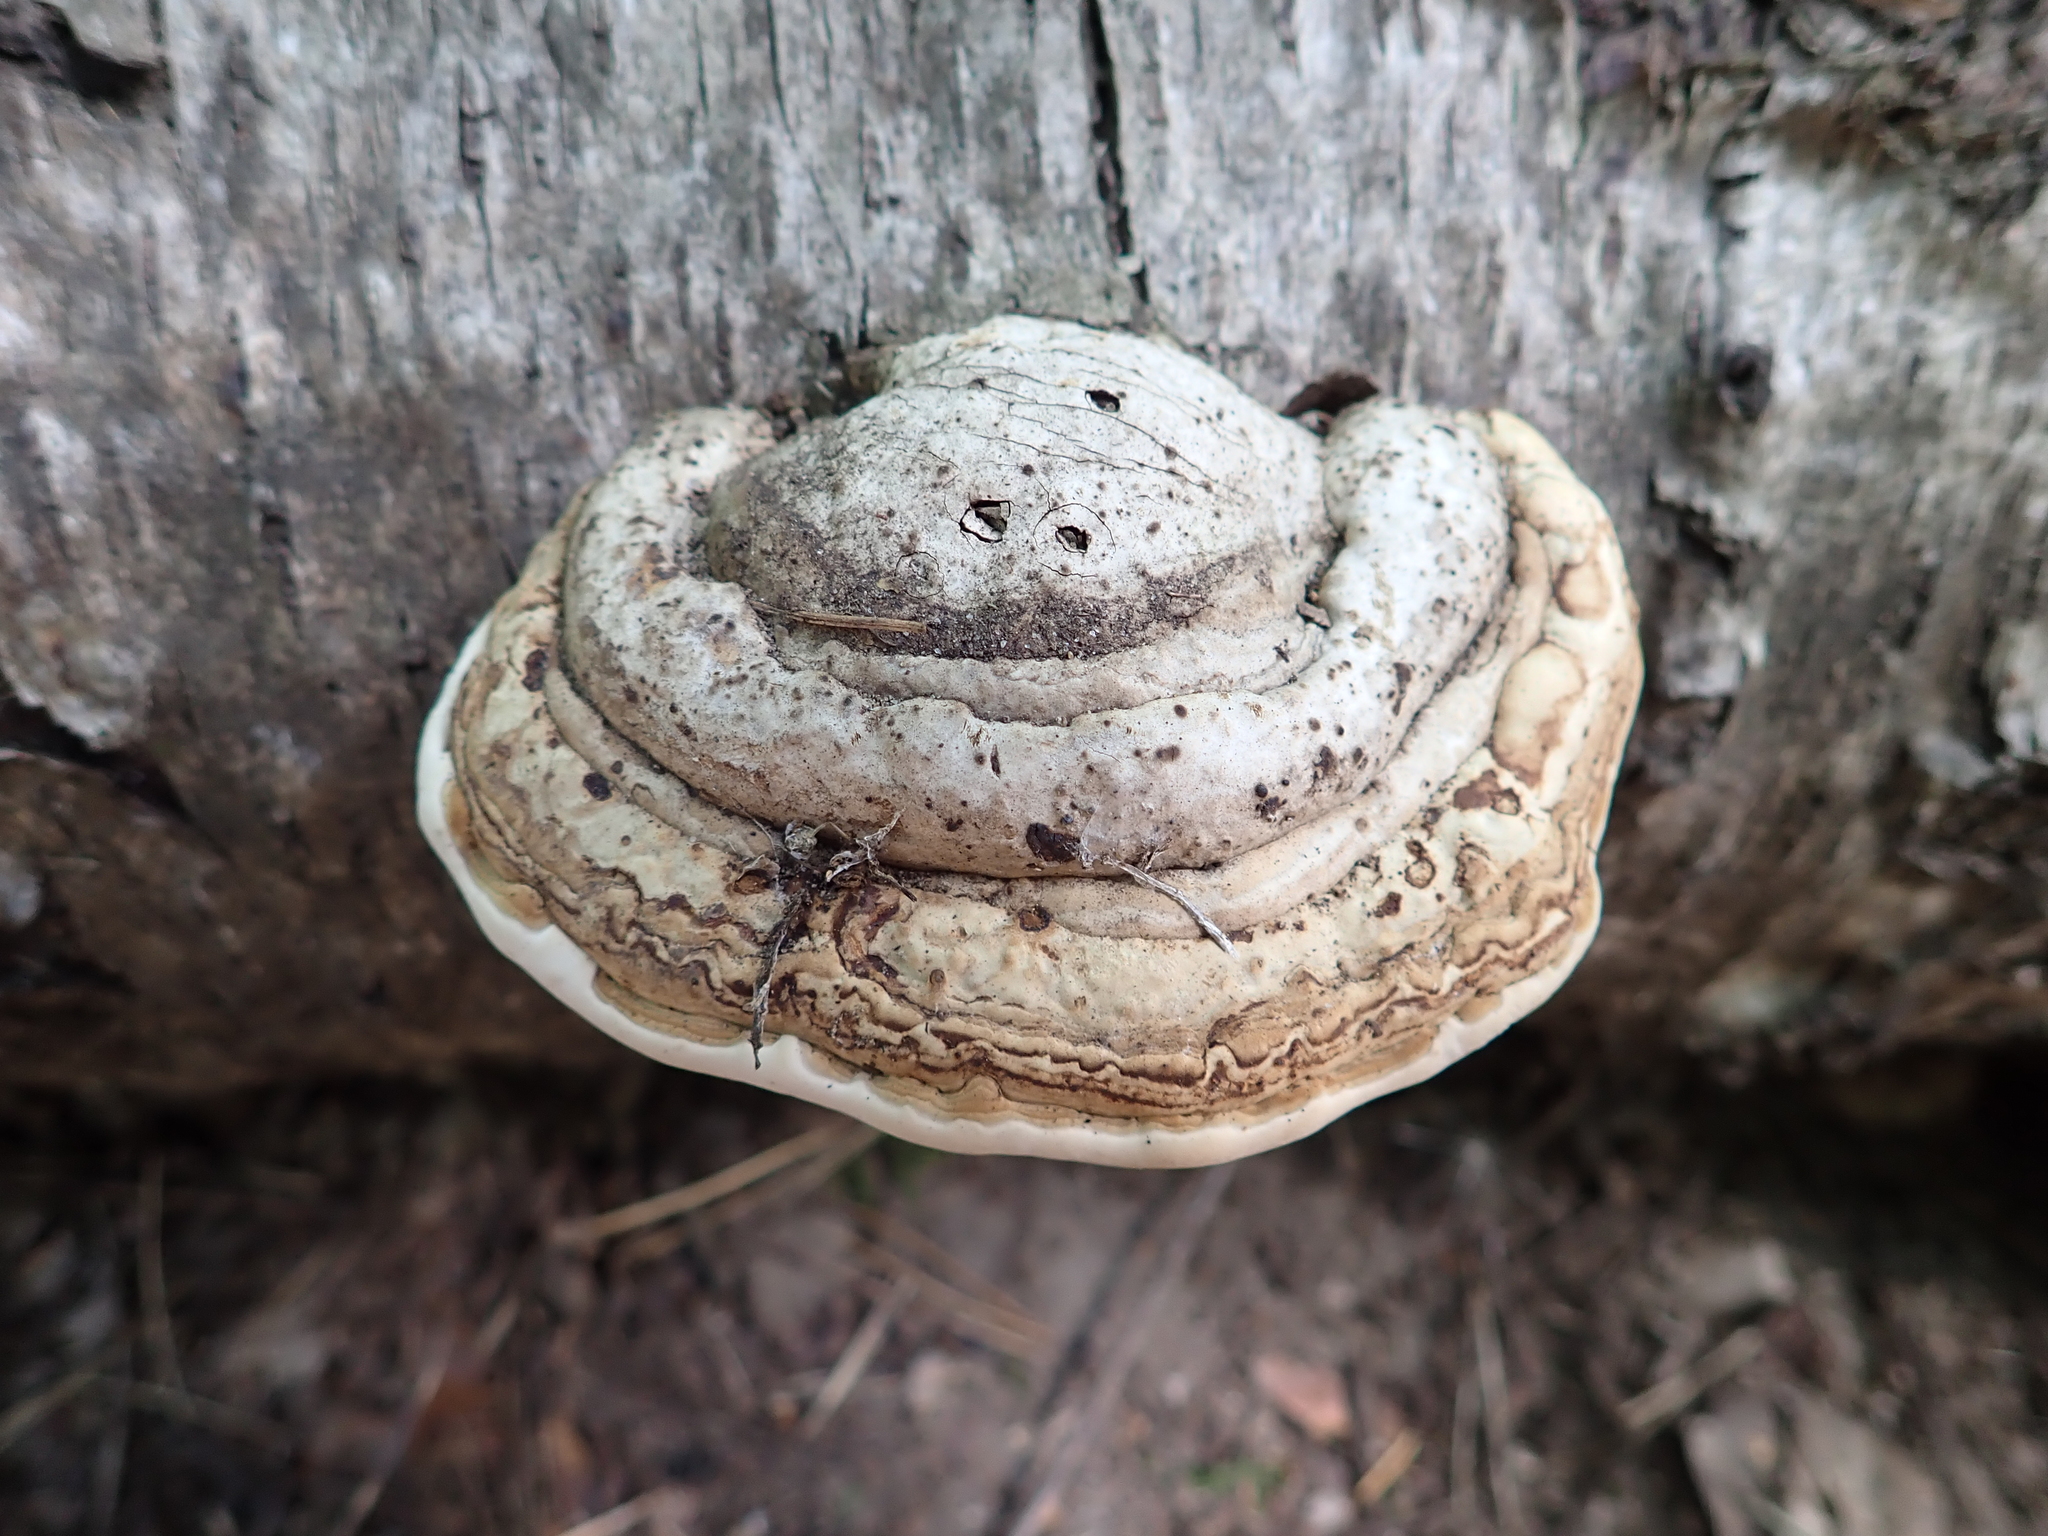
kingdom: Fungi
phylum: Basidiomycota
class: Agaricomycetes
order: Polyporales
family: Polyporaceae
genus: Fomes
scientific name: Fomes fomentarius
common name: Hoof fungus
